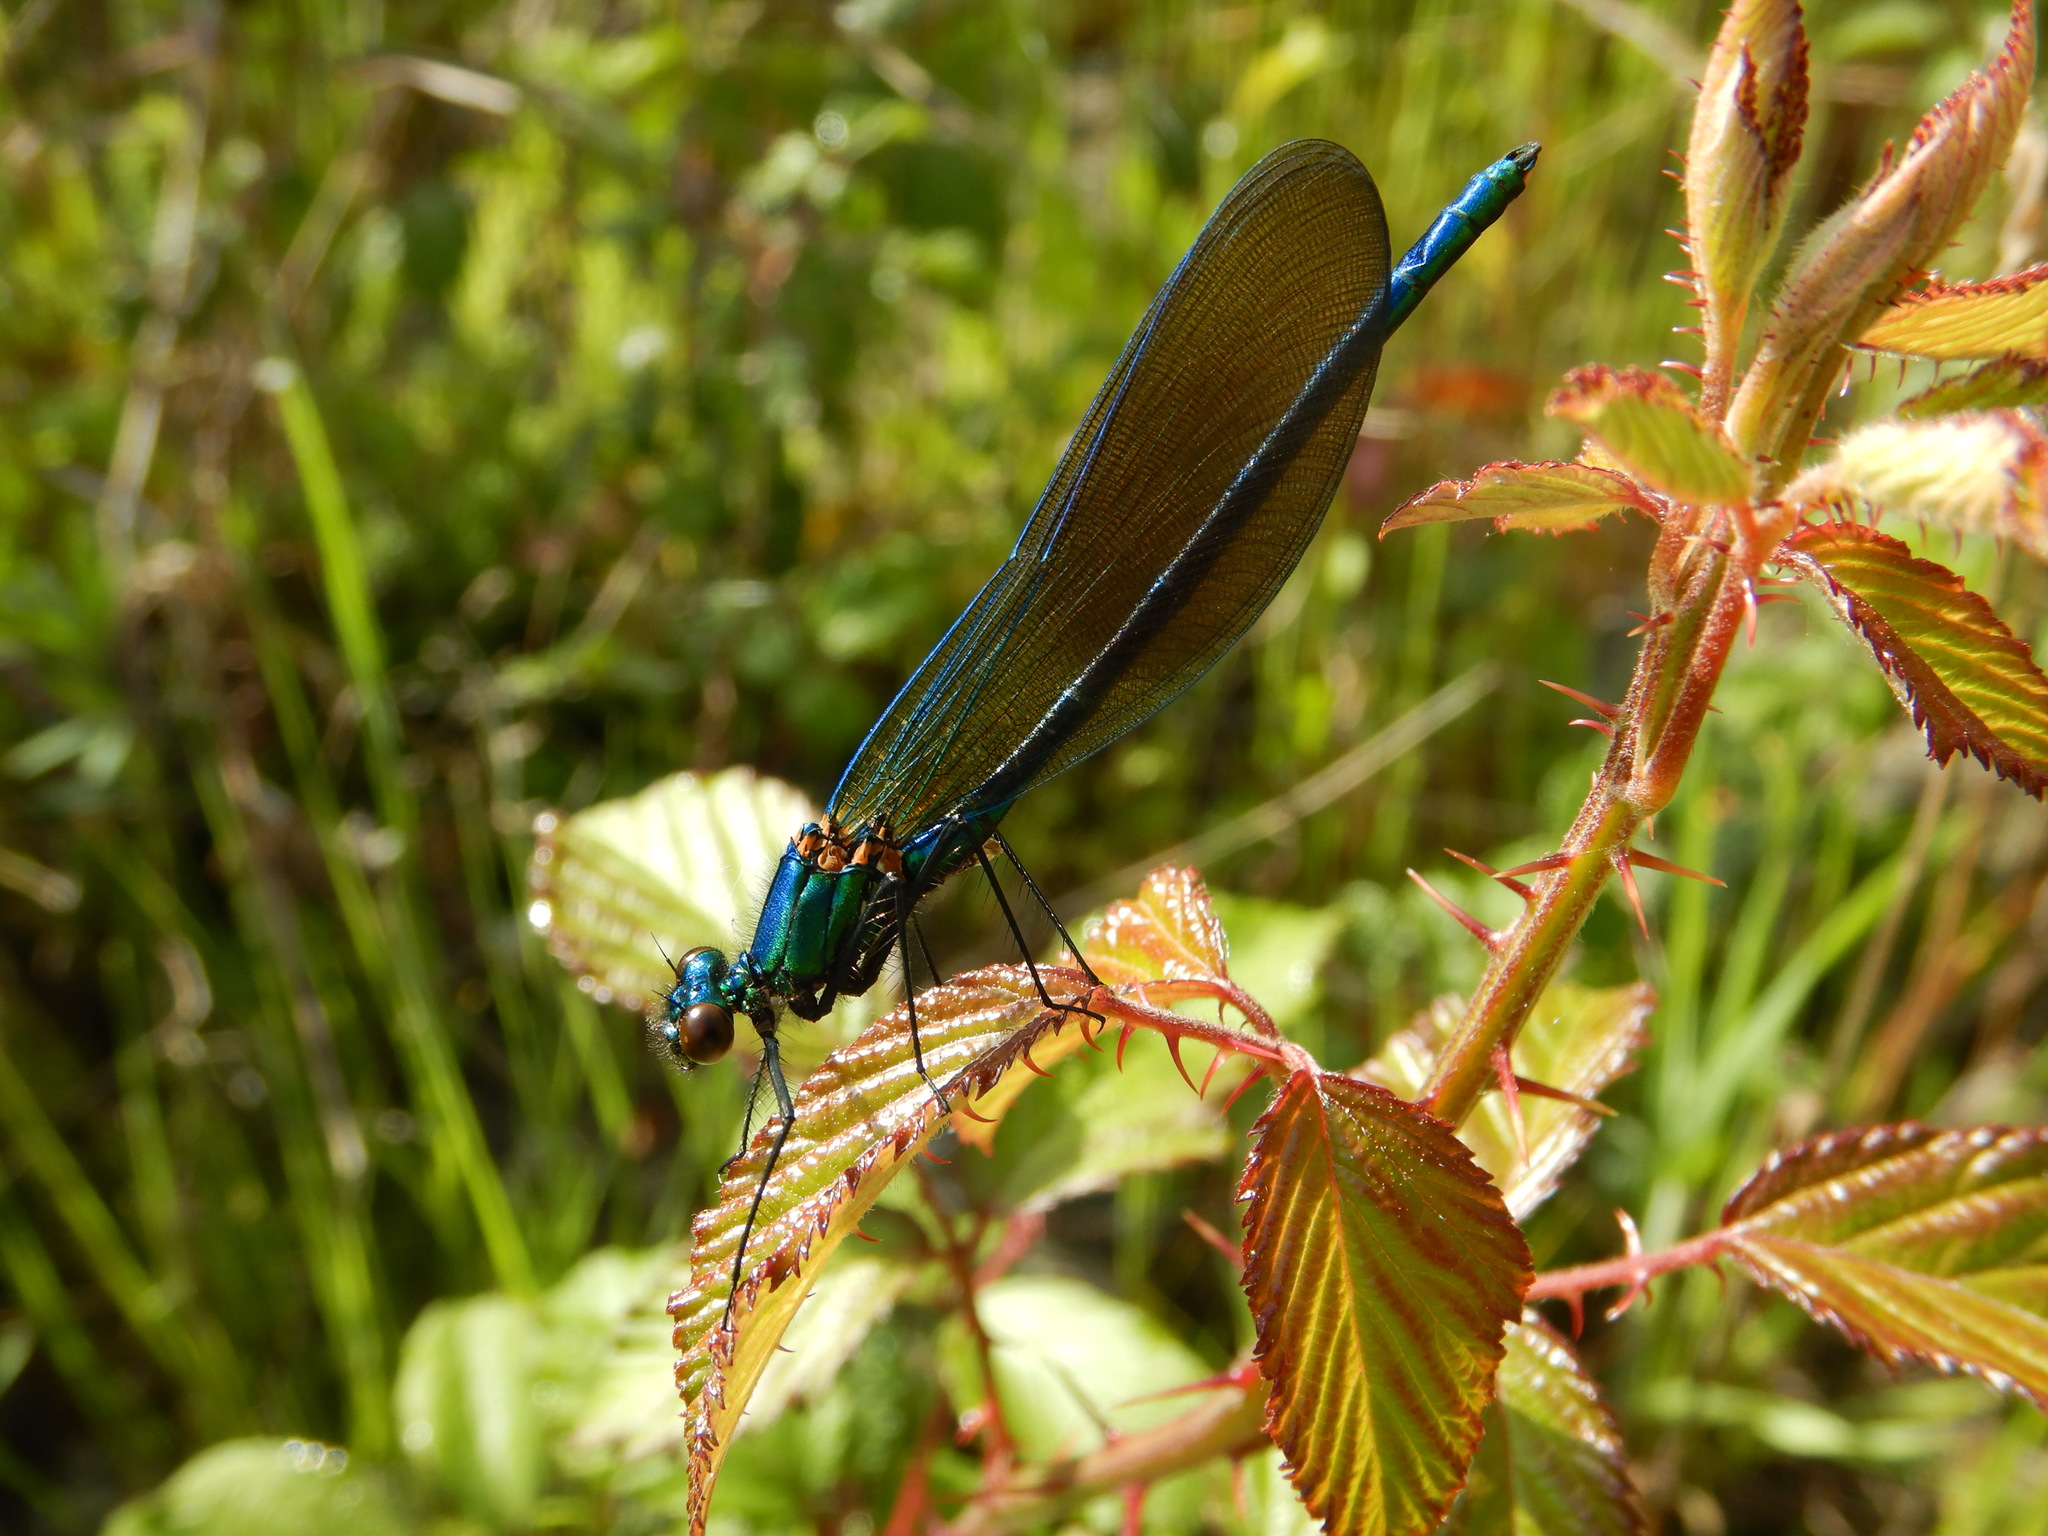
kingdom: Animalia
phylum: Arthropoda
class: Insecta
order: Odonata
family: Calopterygidae
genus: Calopteryx
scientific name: Calopteryx xanthostoma
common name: Western demoiselle
